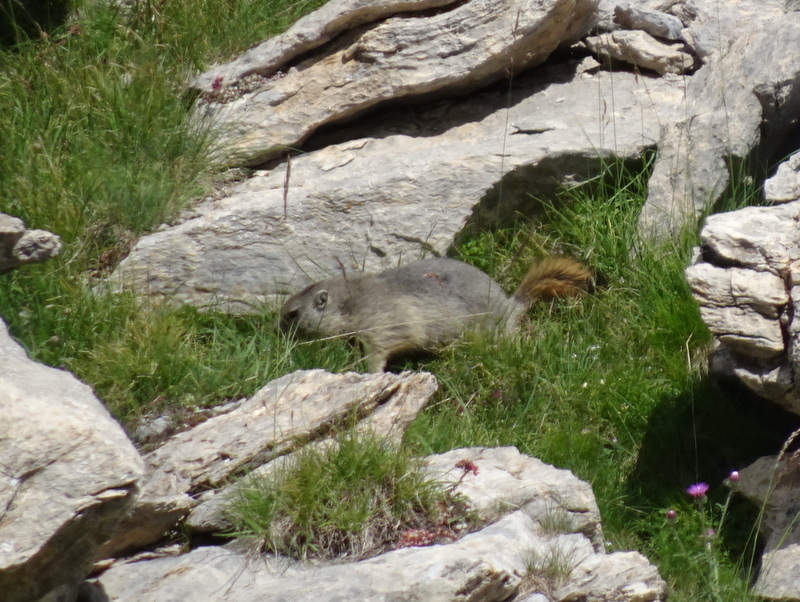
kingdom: Animalia
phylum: Chordata
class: Mammalia
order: Rodentia
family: Sciuridae
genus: Marmota
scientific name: Marmota marmota
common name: Alpine marmot
